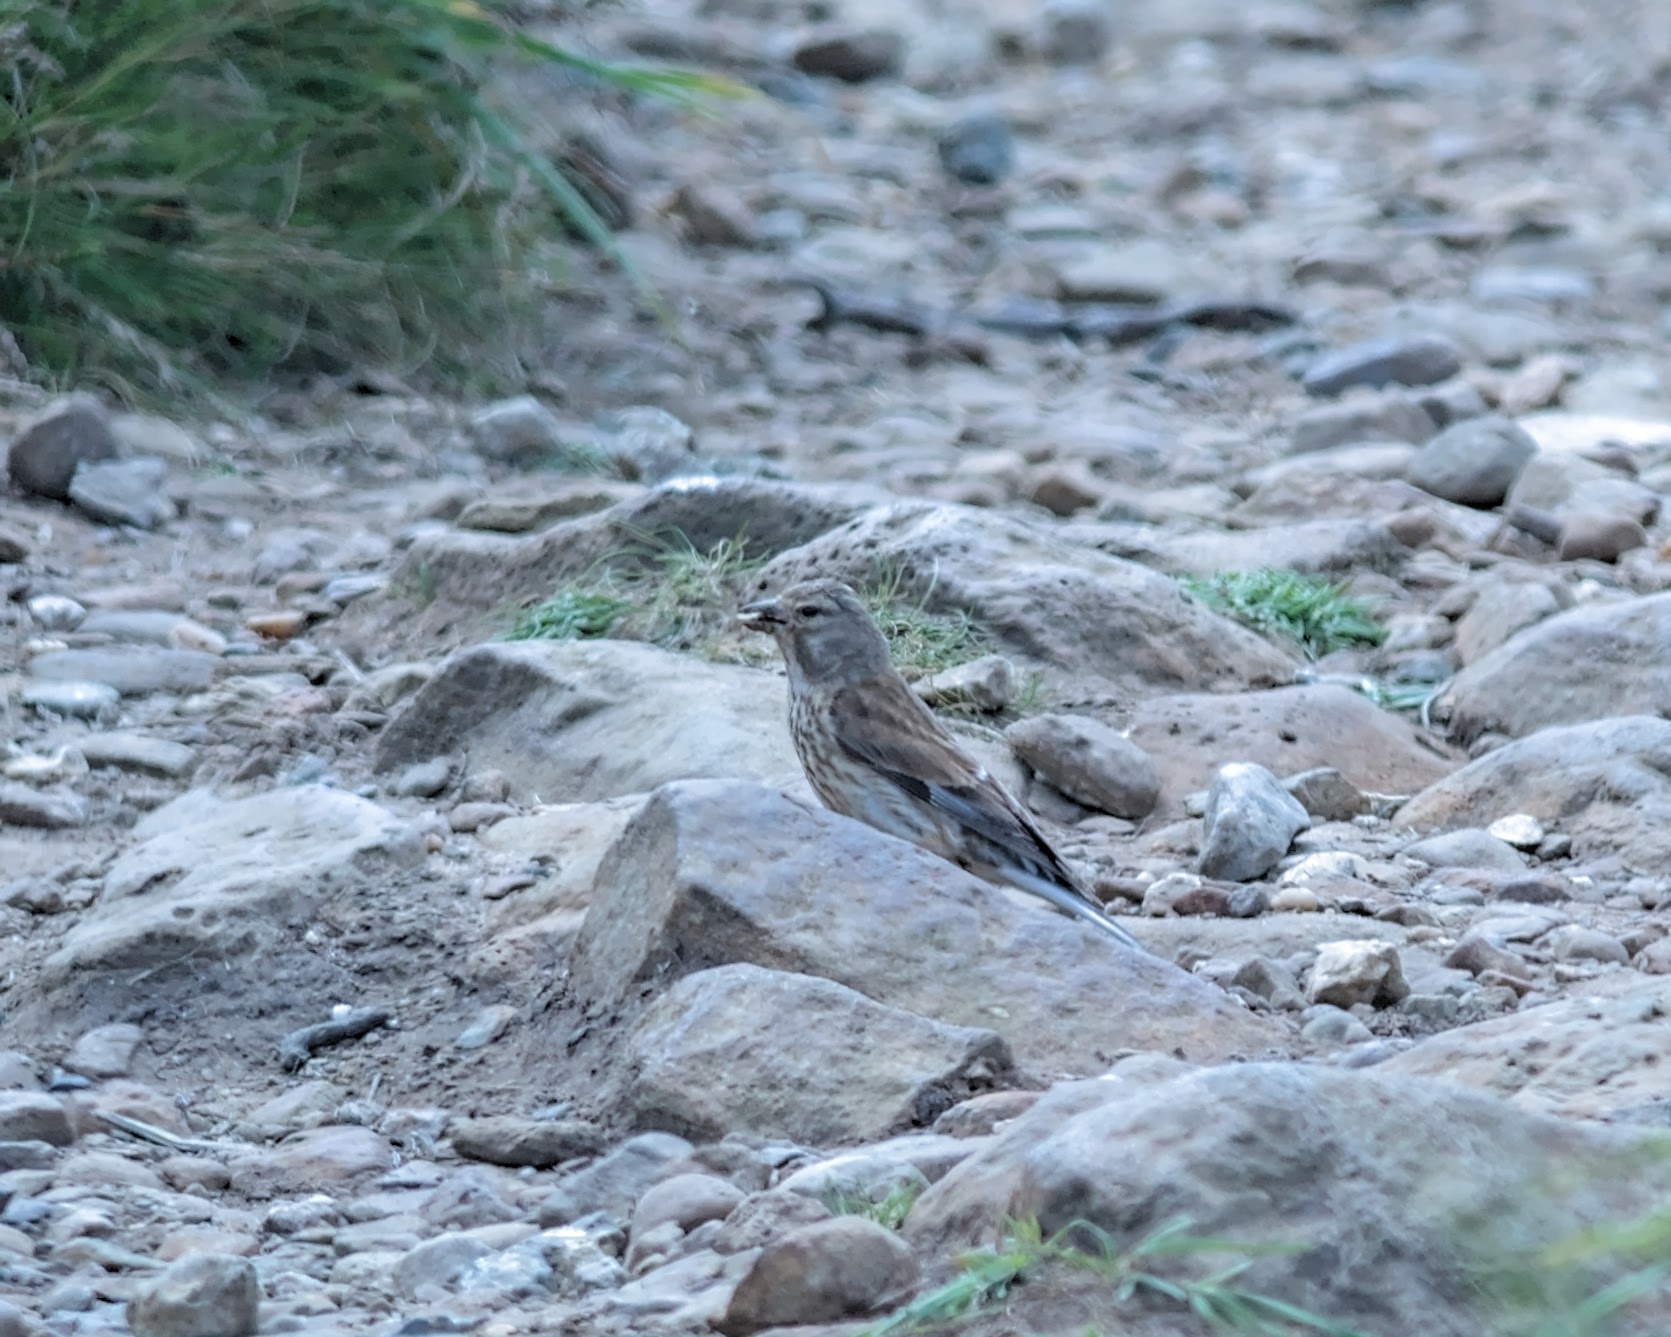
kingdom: Animalia
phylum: Chordata
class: Aves
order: Passeriformes
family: Fringillidae
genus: Linaria
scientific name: Linaria cannabina
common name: Common linnet
